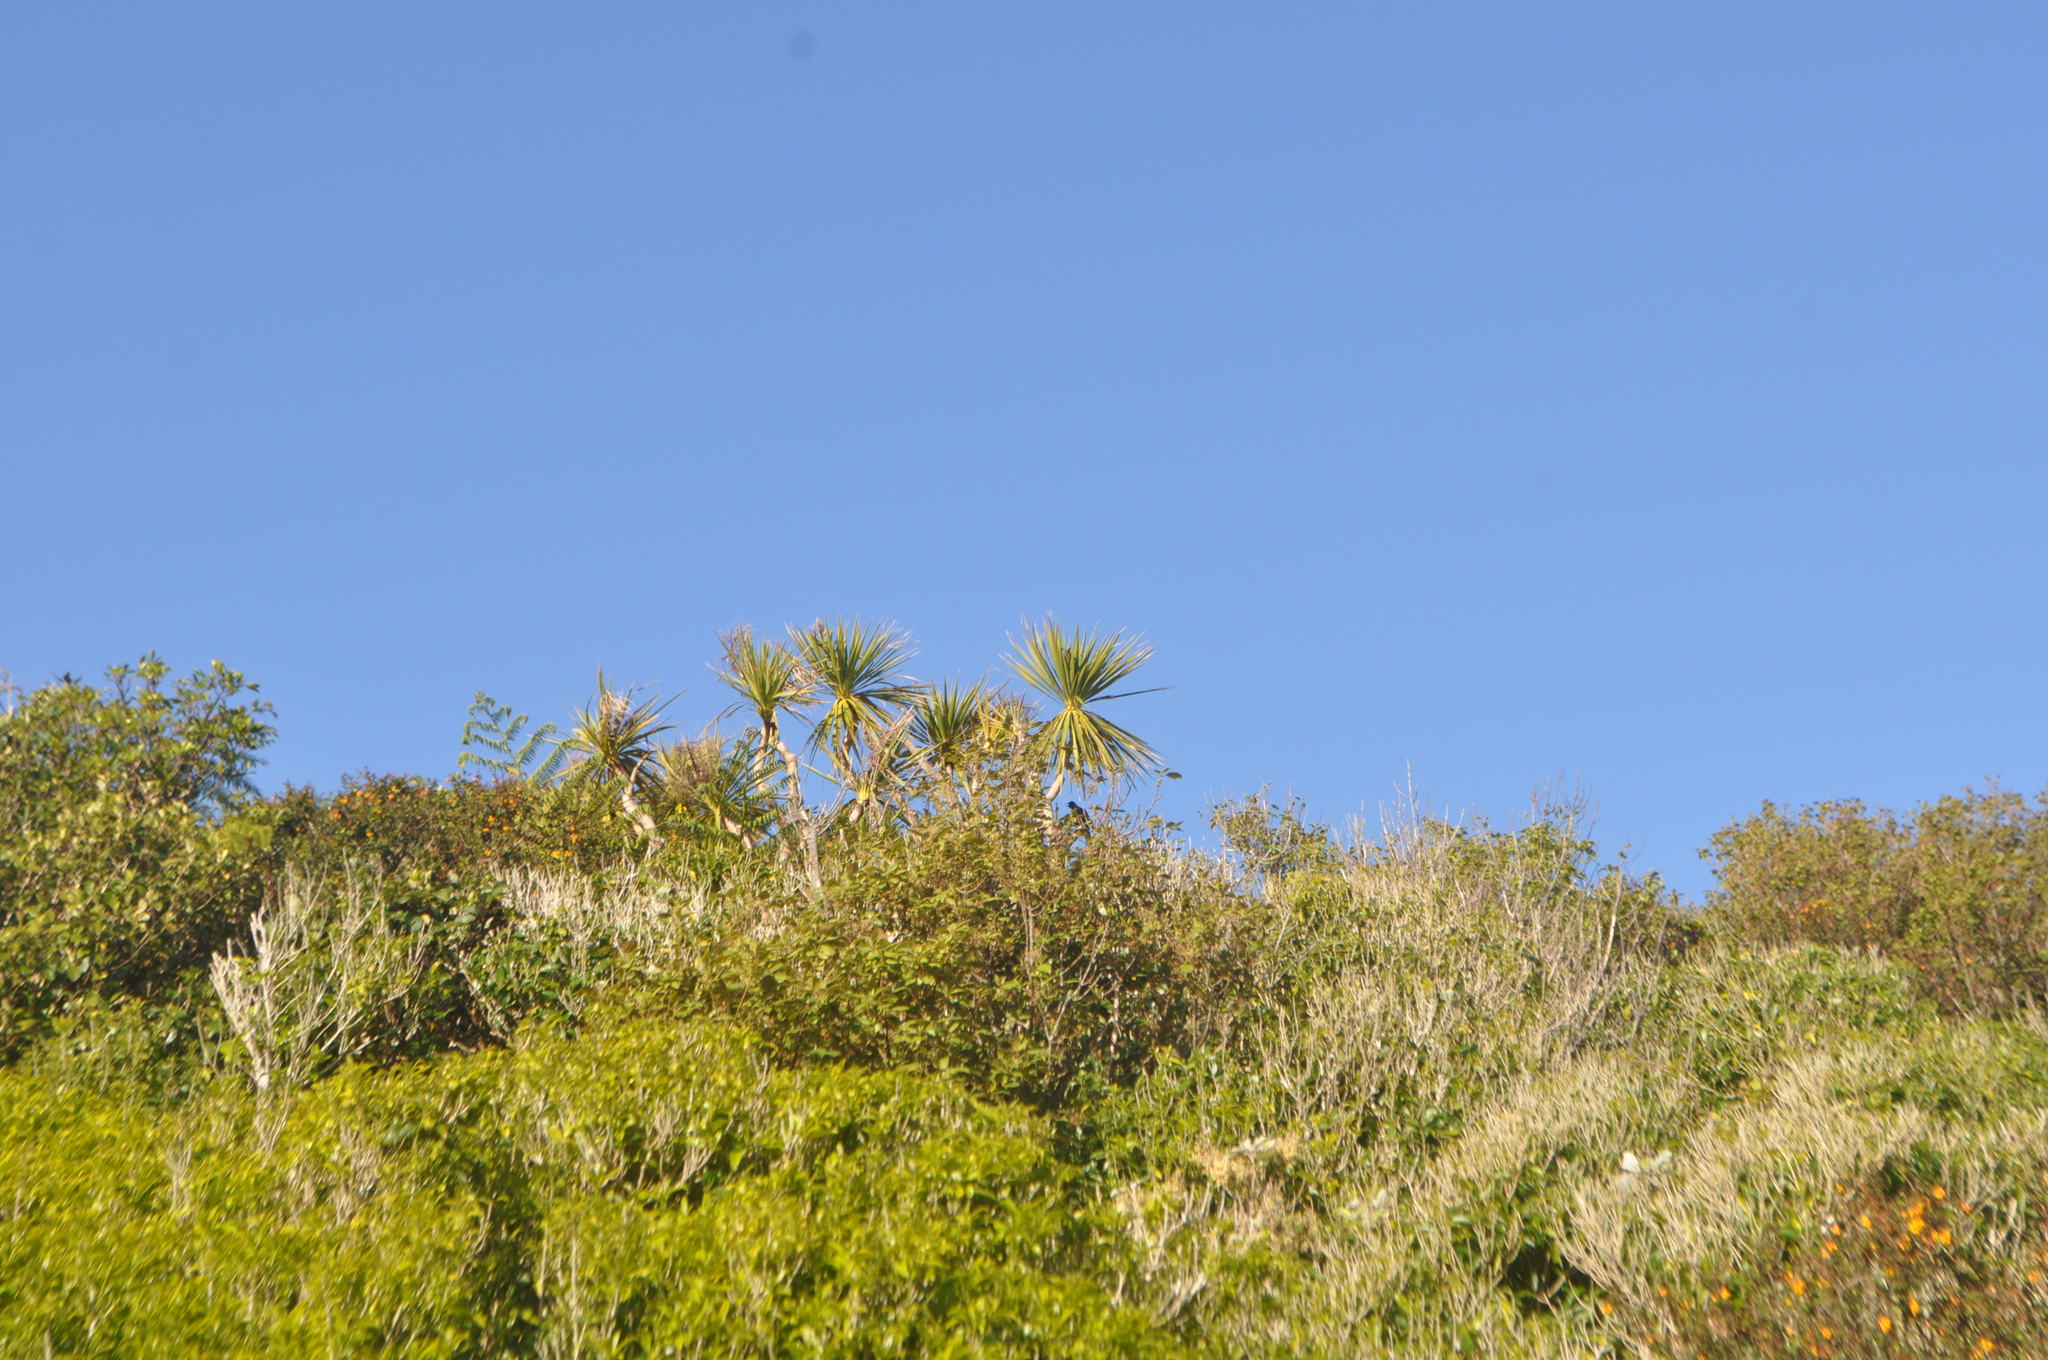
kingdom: Plantae
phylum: Tracheophyta
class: Liliopsida
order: Asparagales
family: Asparagaceae
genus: Cordyline
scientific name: Cordyline australis
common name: Cabbage-palm
